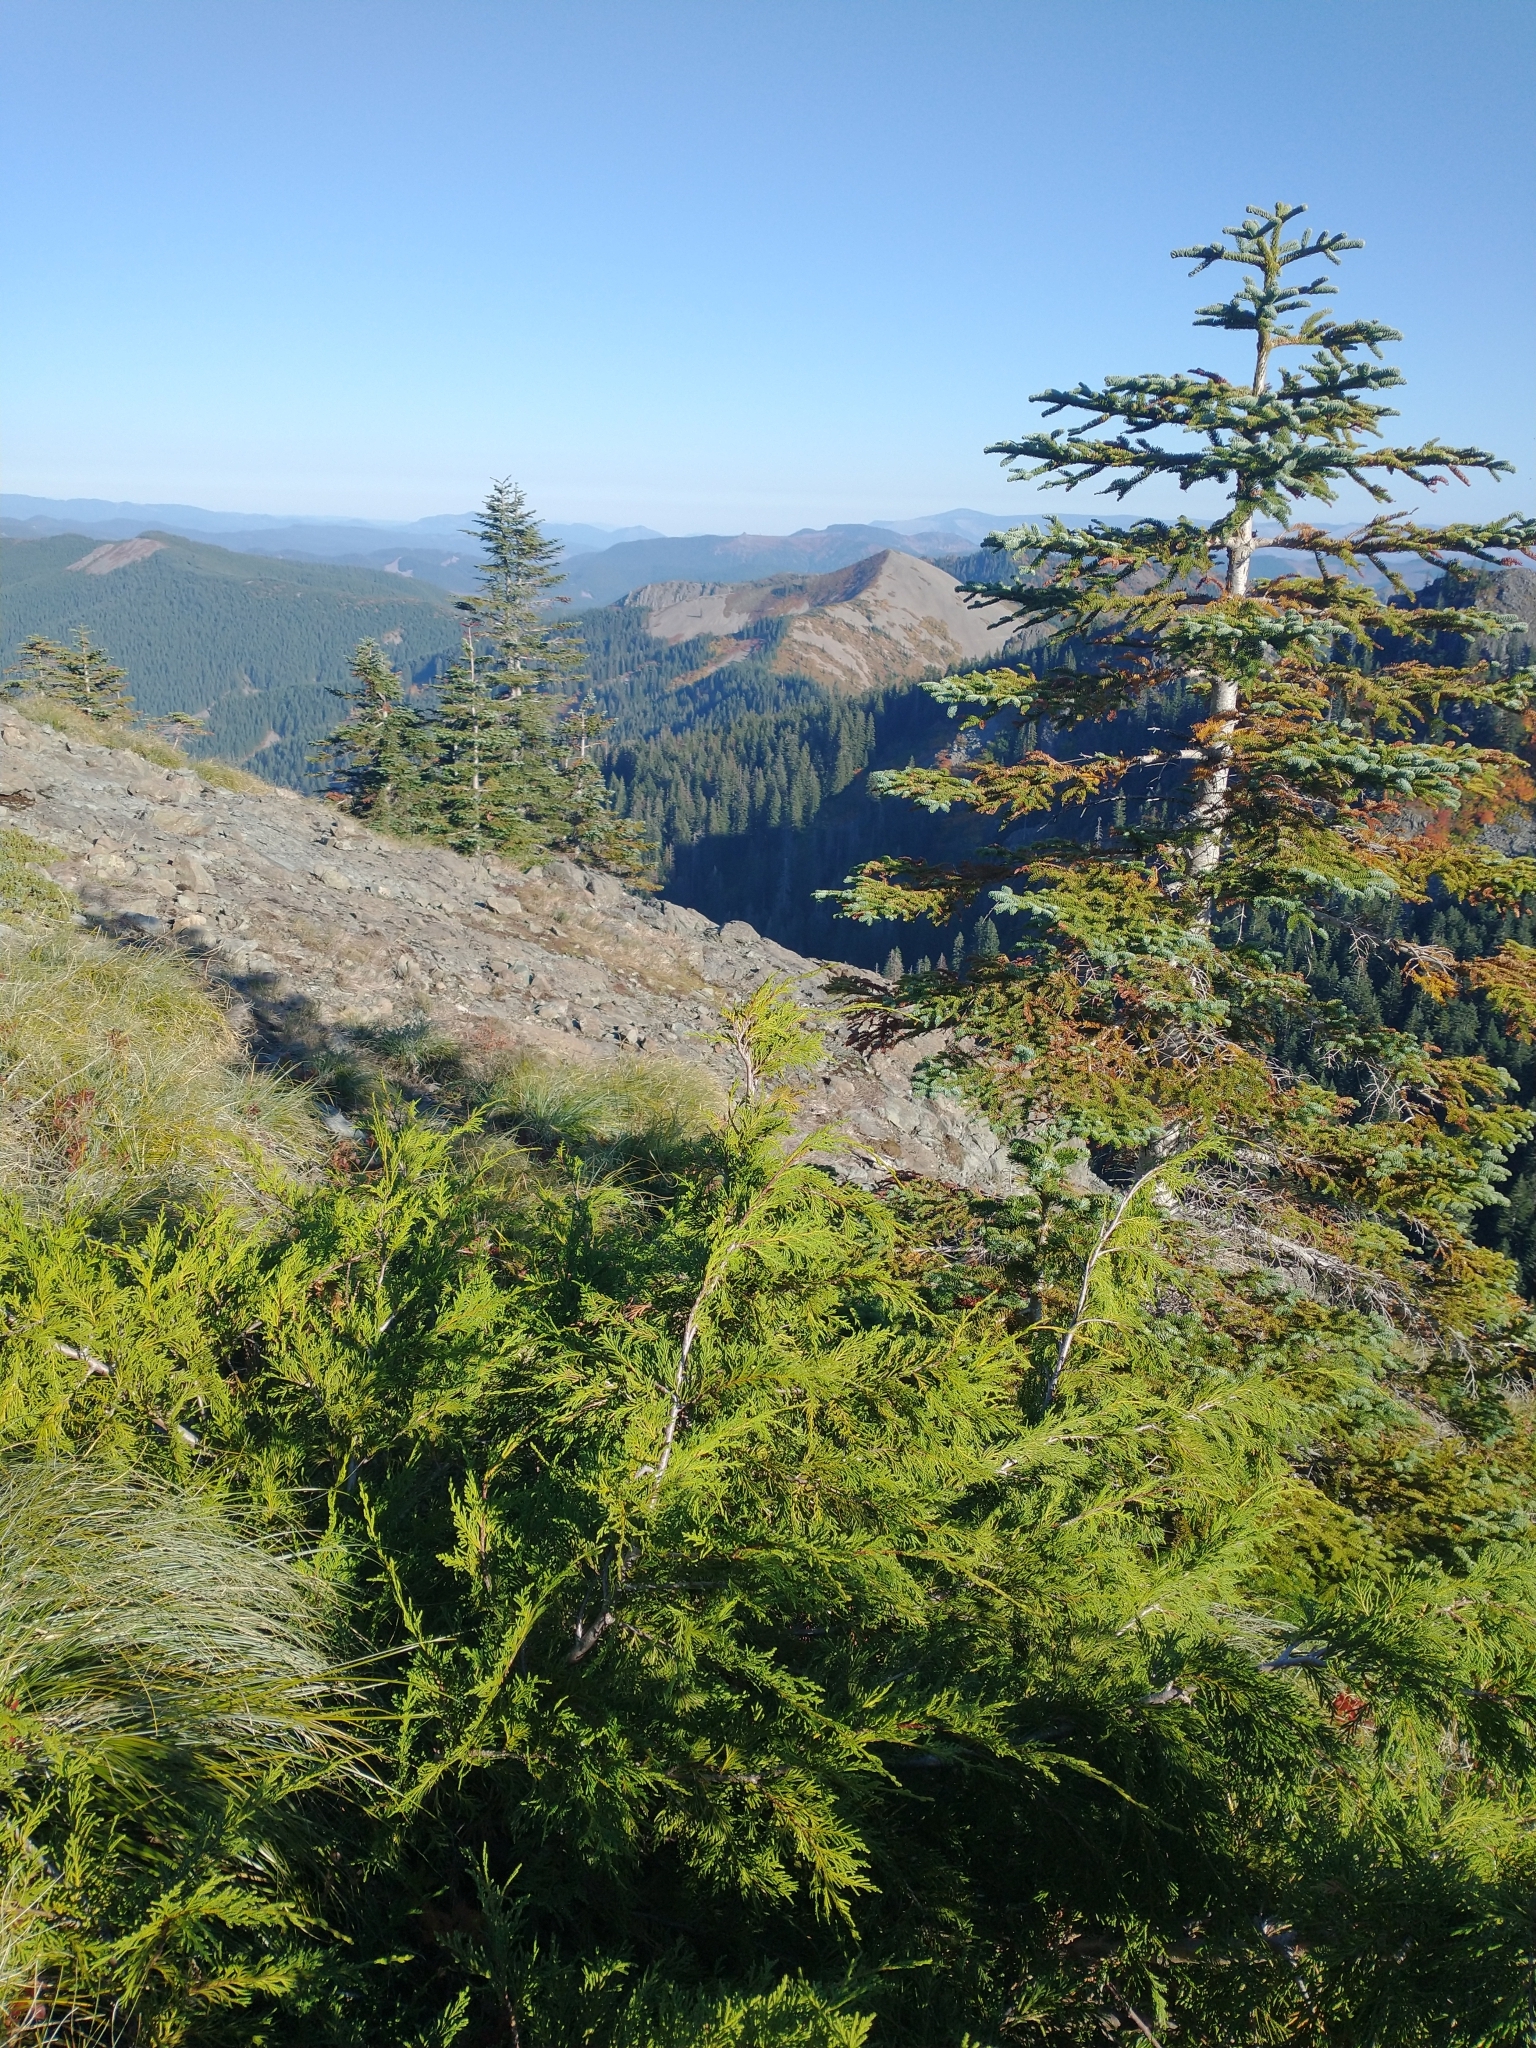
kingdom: Plantae
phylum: Tracheophyta
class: Pinopsida
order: Pinales
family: Cupressaceae
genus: Xanthocyparis
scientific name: Xanthocyparis nootkatensis
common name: Nootka cypress
